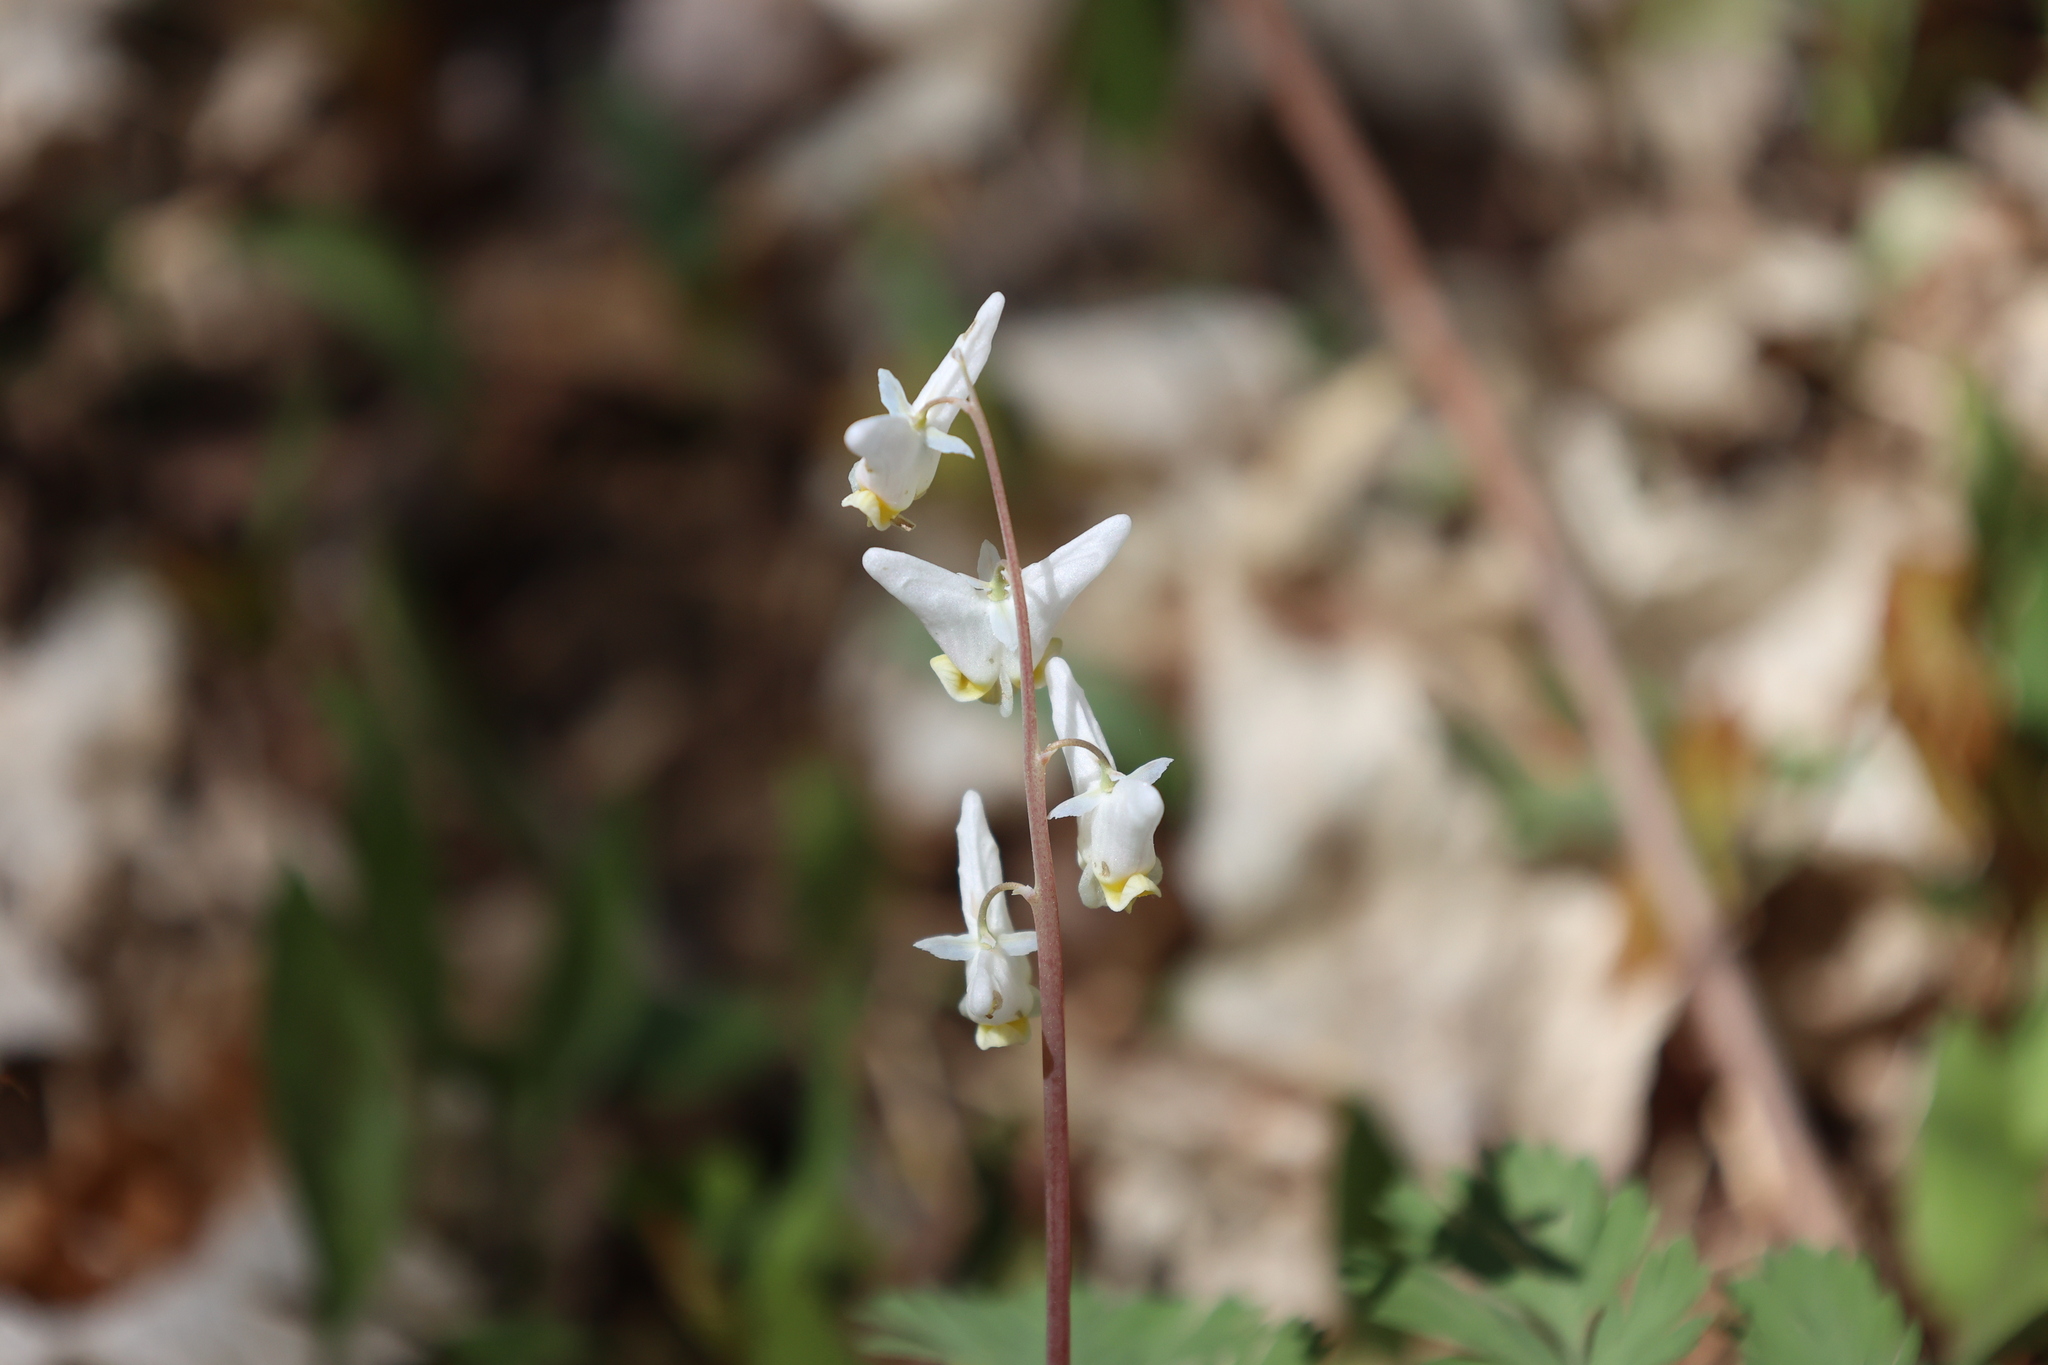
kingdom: Plantae
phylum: Tracheophyta
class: Magnoliopsida
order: Ranunculales
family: Papaveraceae
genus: Dicentra
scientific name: Dicentra cucullaria
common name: Dutchman's breeches
